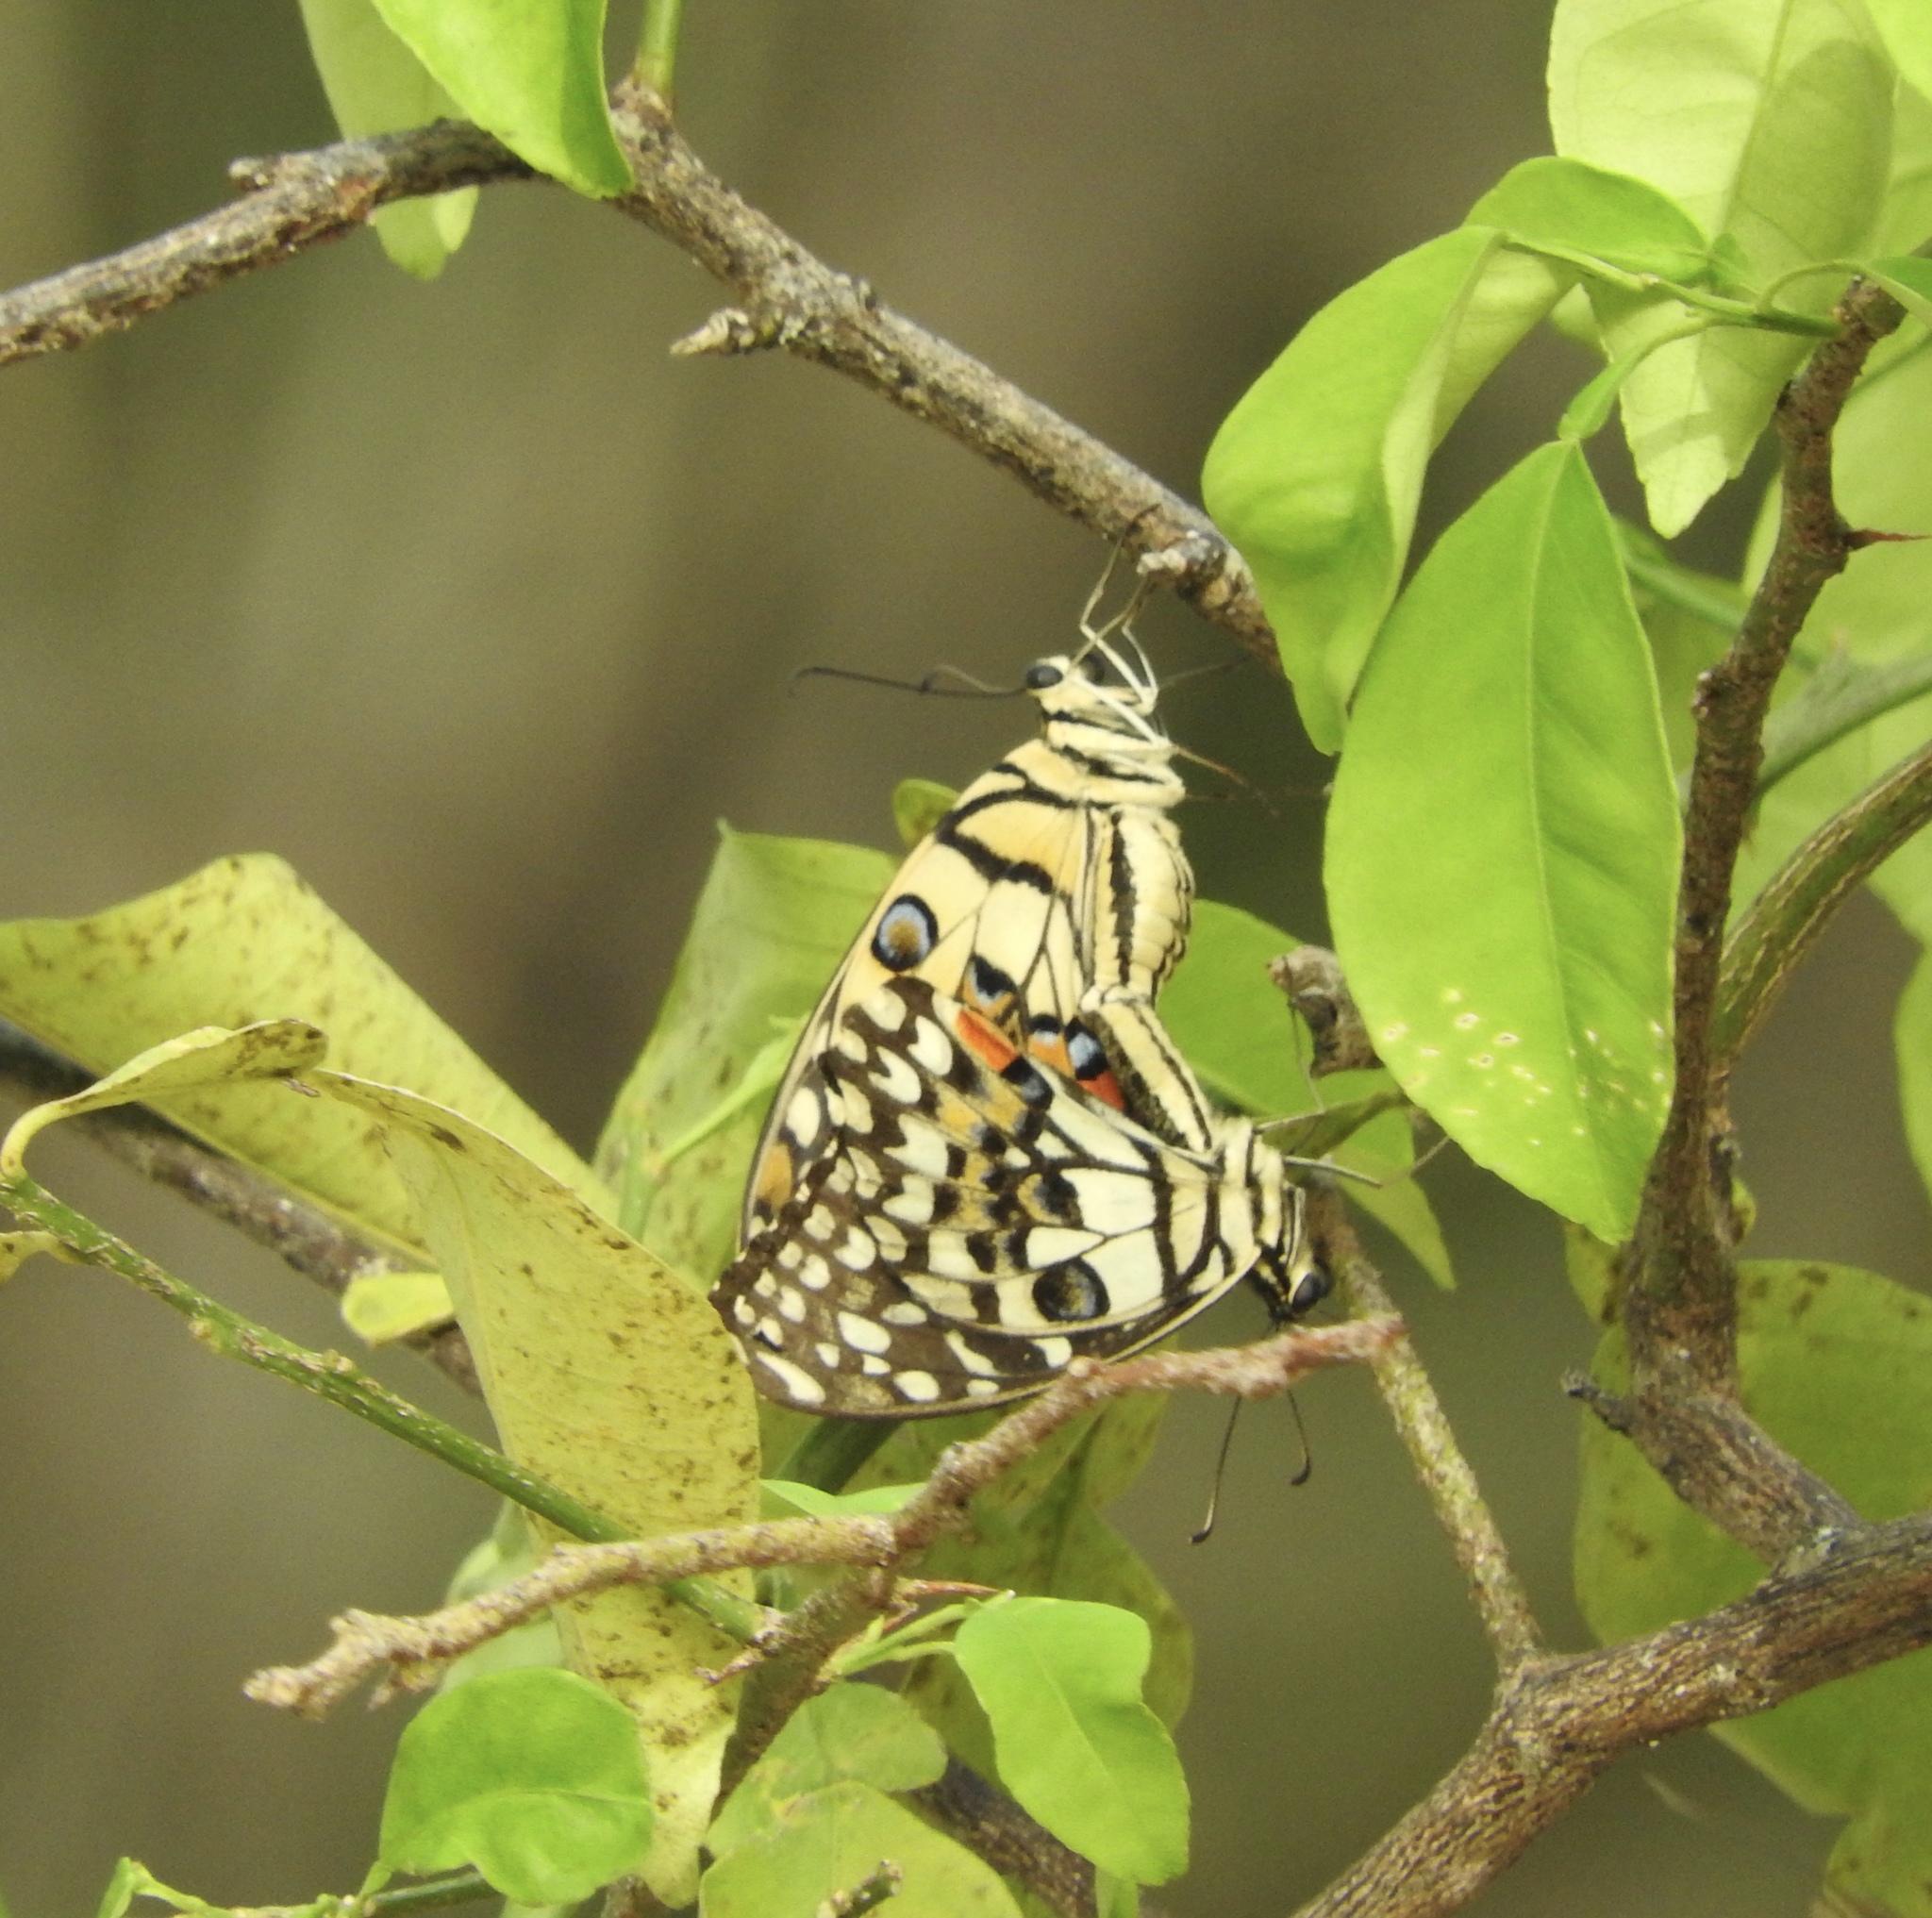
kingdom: Animalia
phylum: Arthropoda
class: Insecta
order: Lepidoptera
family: Papilionidae
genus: Papilio
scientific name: Papilio demoleus
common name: Lime butterfly
